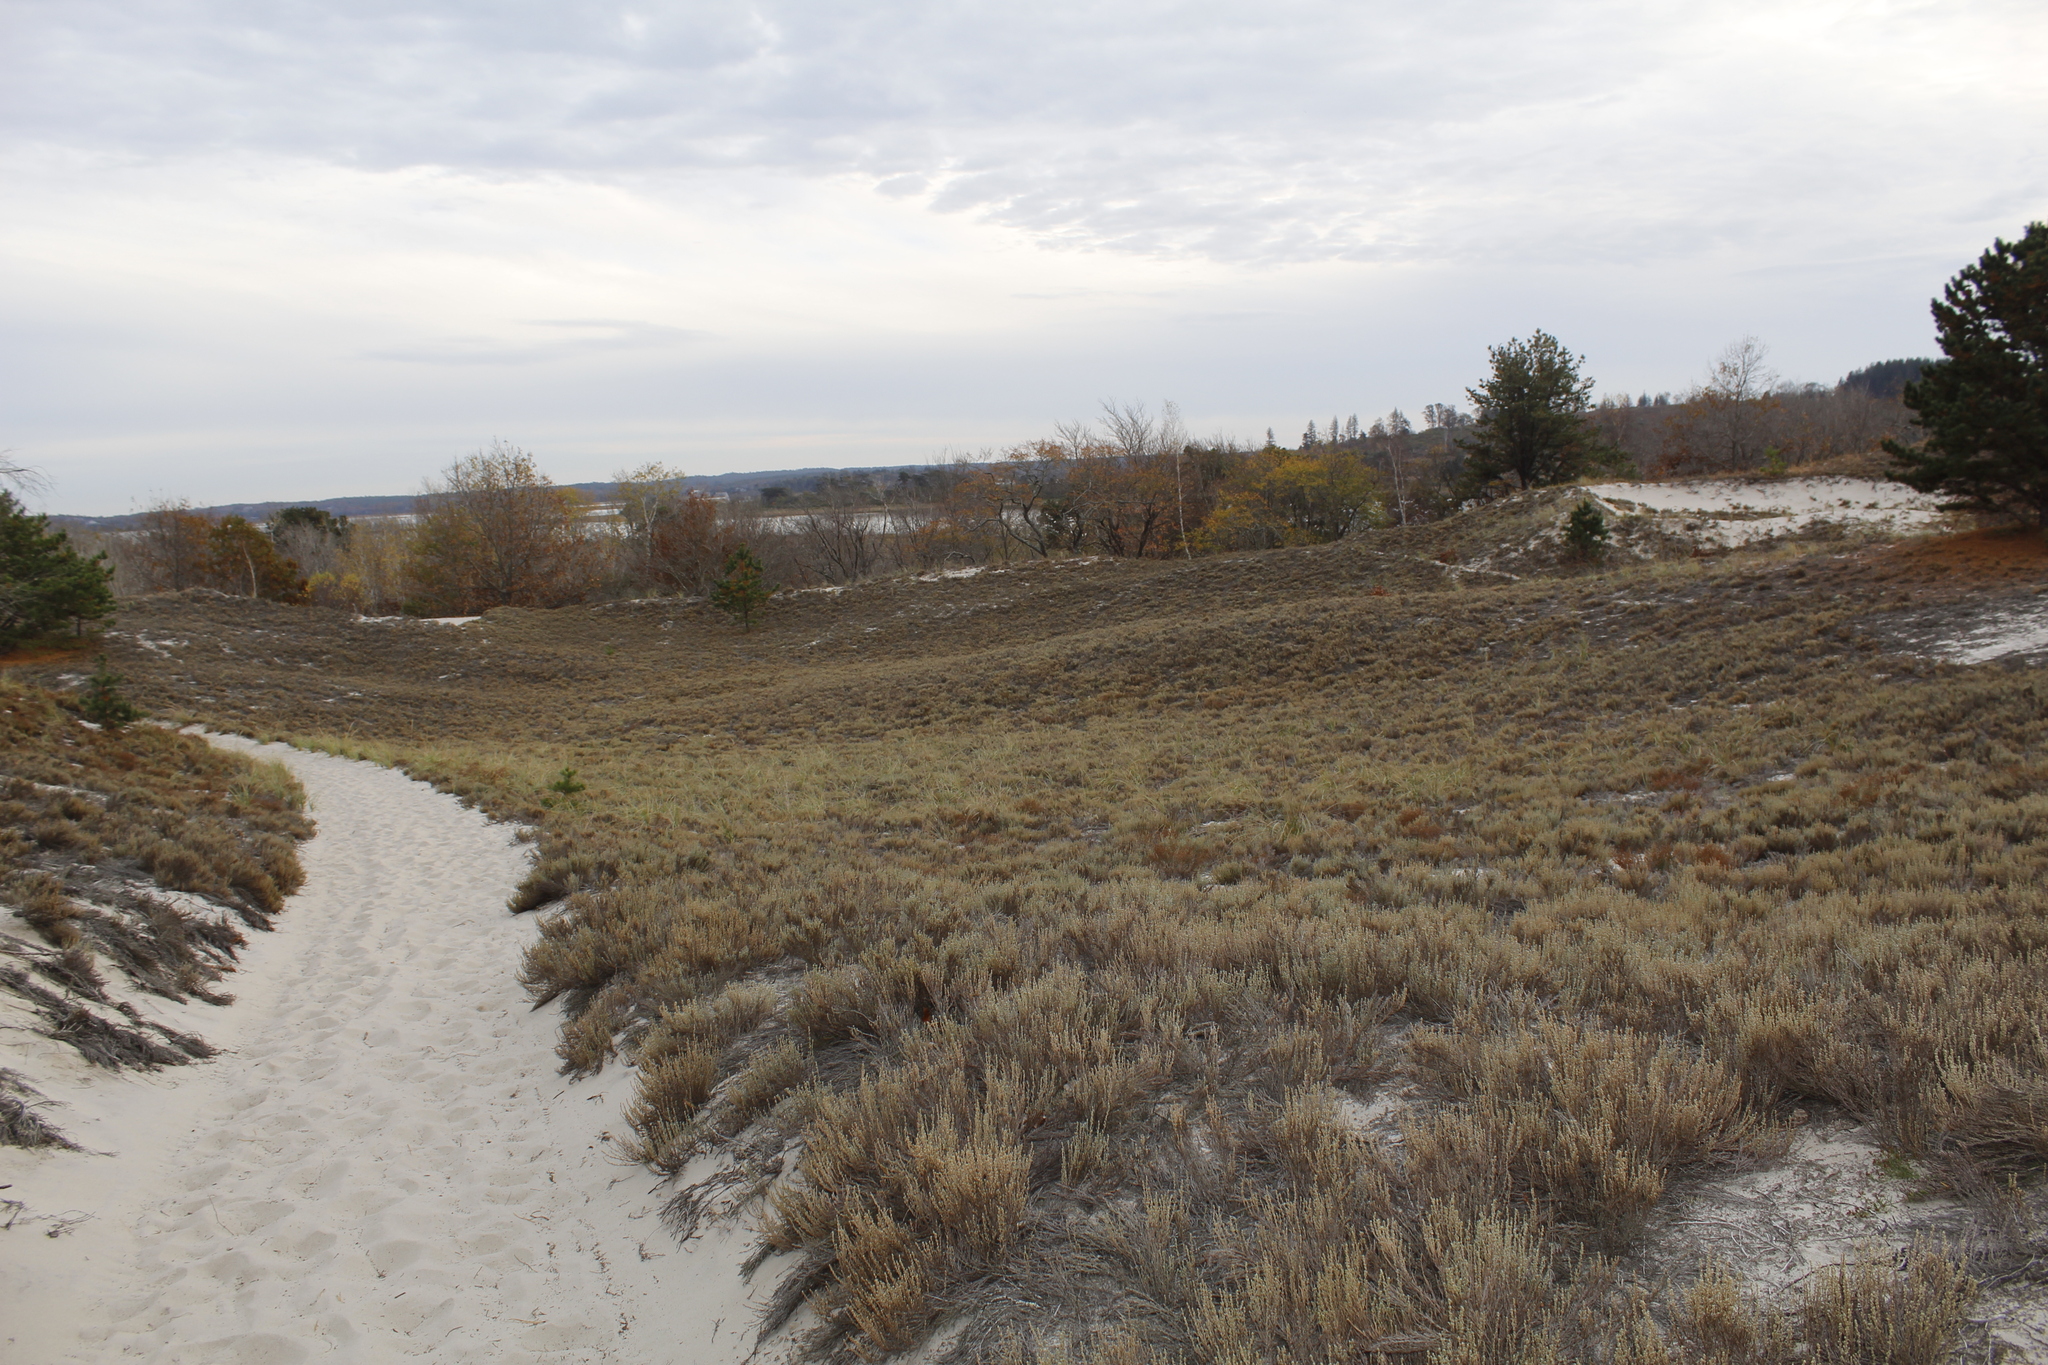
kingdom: Plantae
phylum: Tracheophyta
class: Magnoliopsida
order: Malvales
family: Cistaceae
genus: Hudsonia
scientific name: Hudsonia tomentosa
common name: Beach-heath
